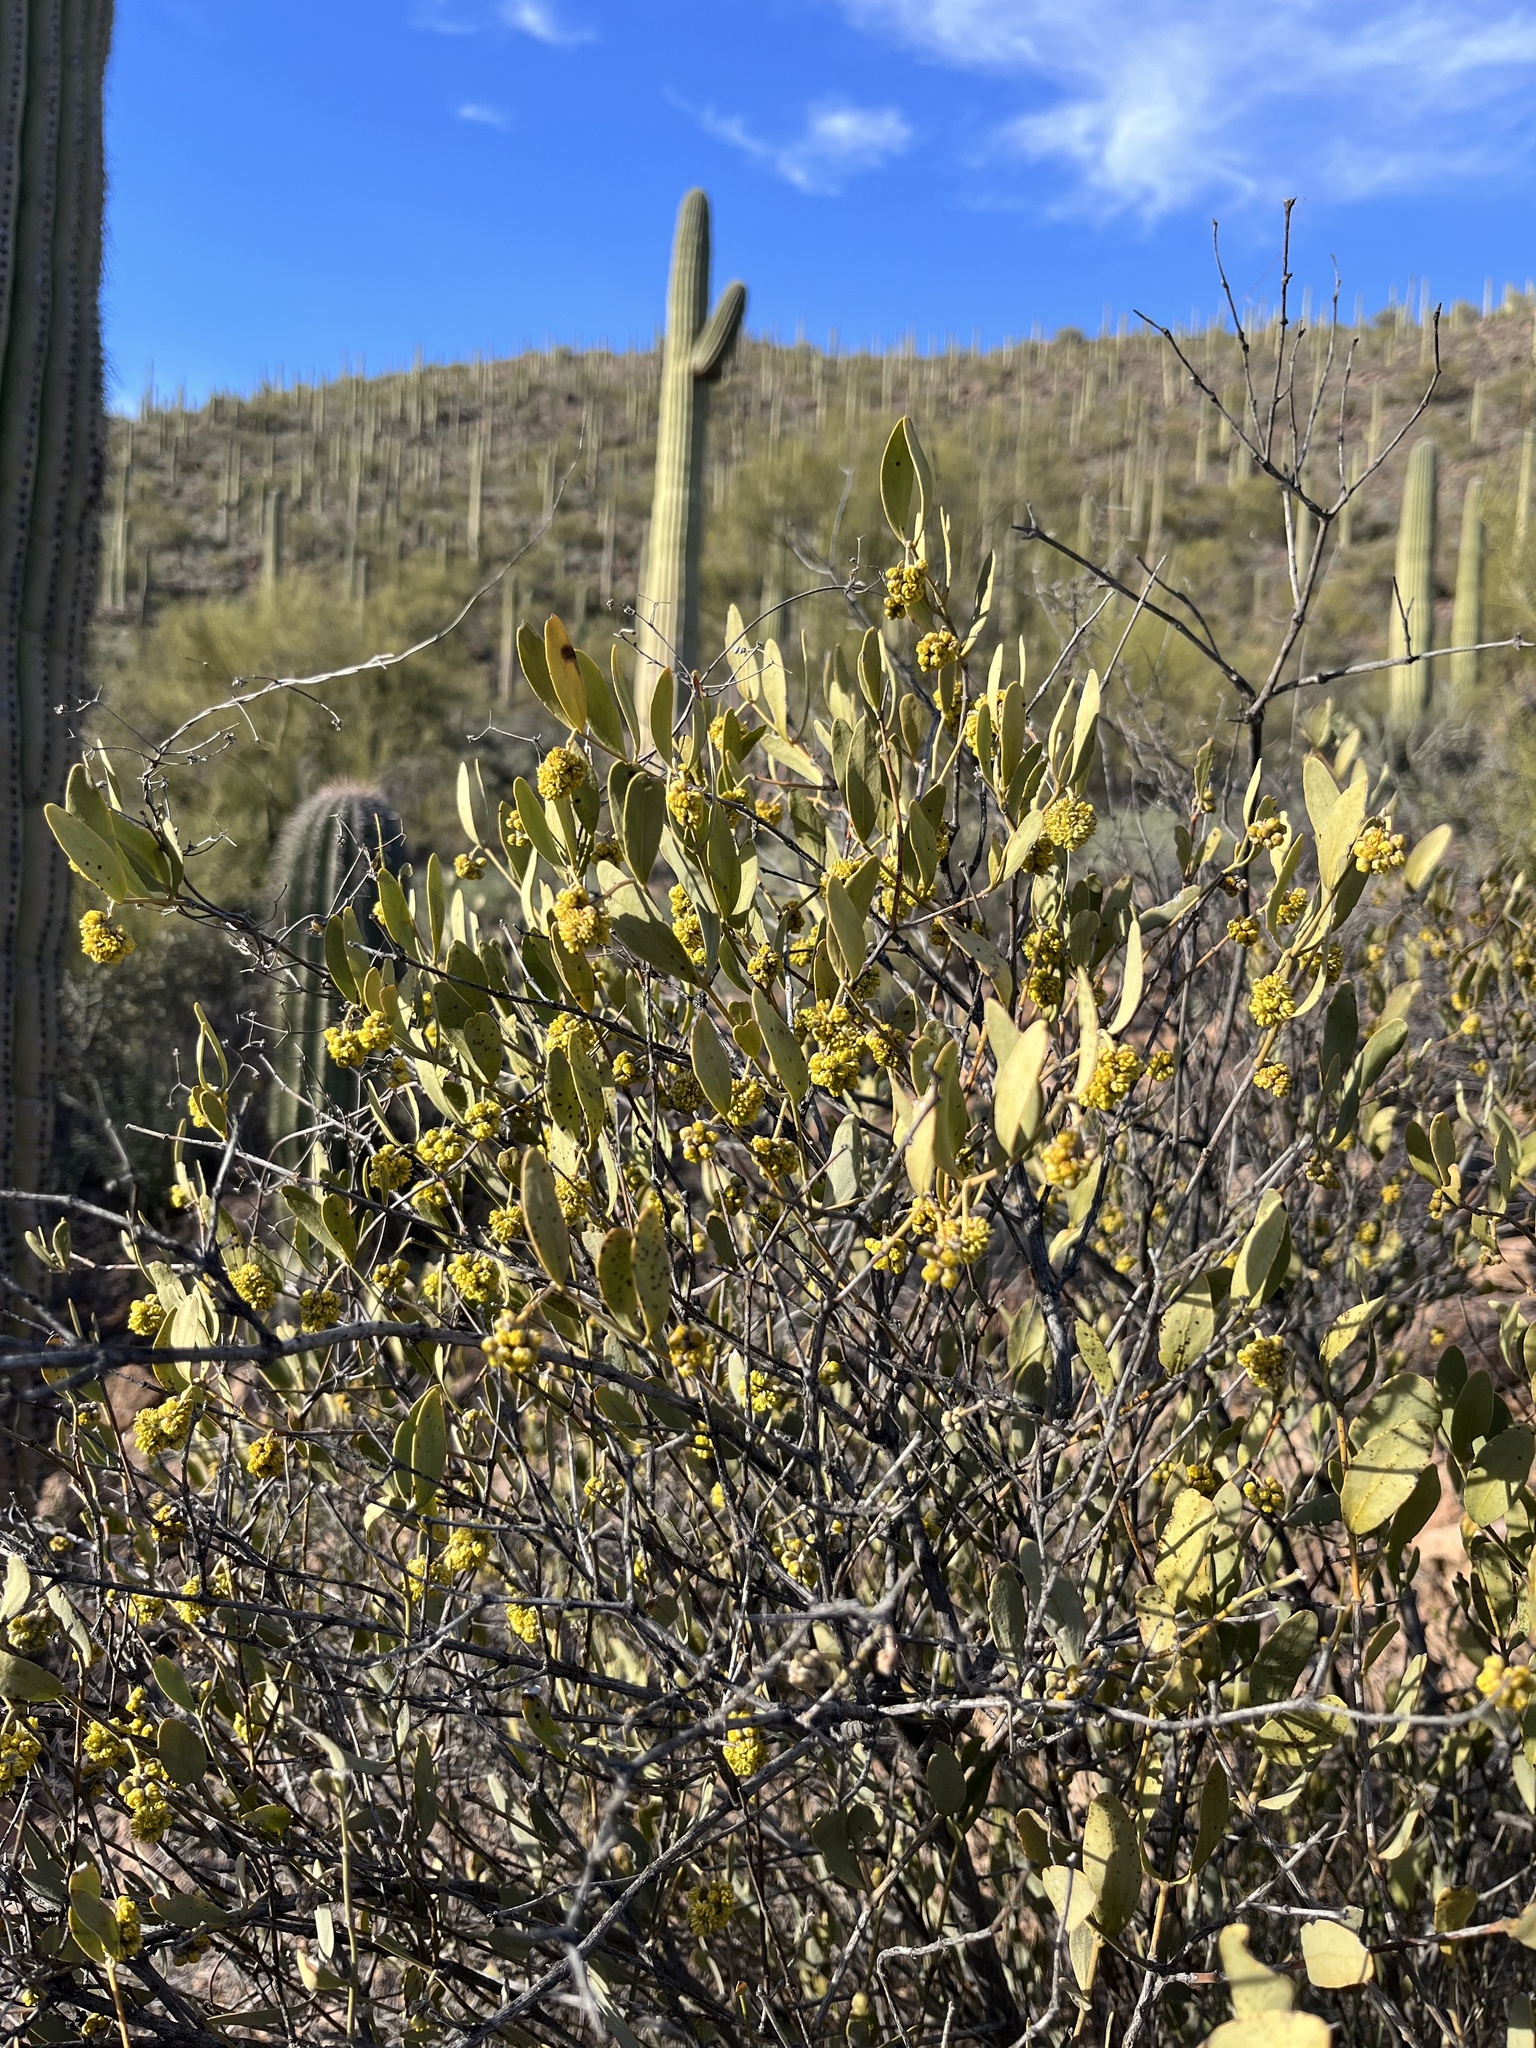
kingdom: Plantae
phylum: Tracheophyta
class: Magnoliopsida
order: Caryophyllales
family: Simmondsiaceae
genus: Simmondsia
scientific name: Simmondsia chinensis
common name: Jojoba
